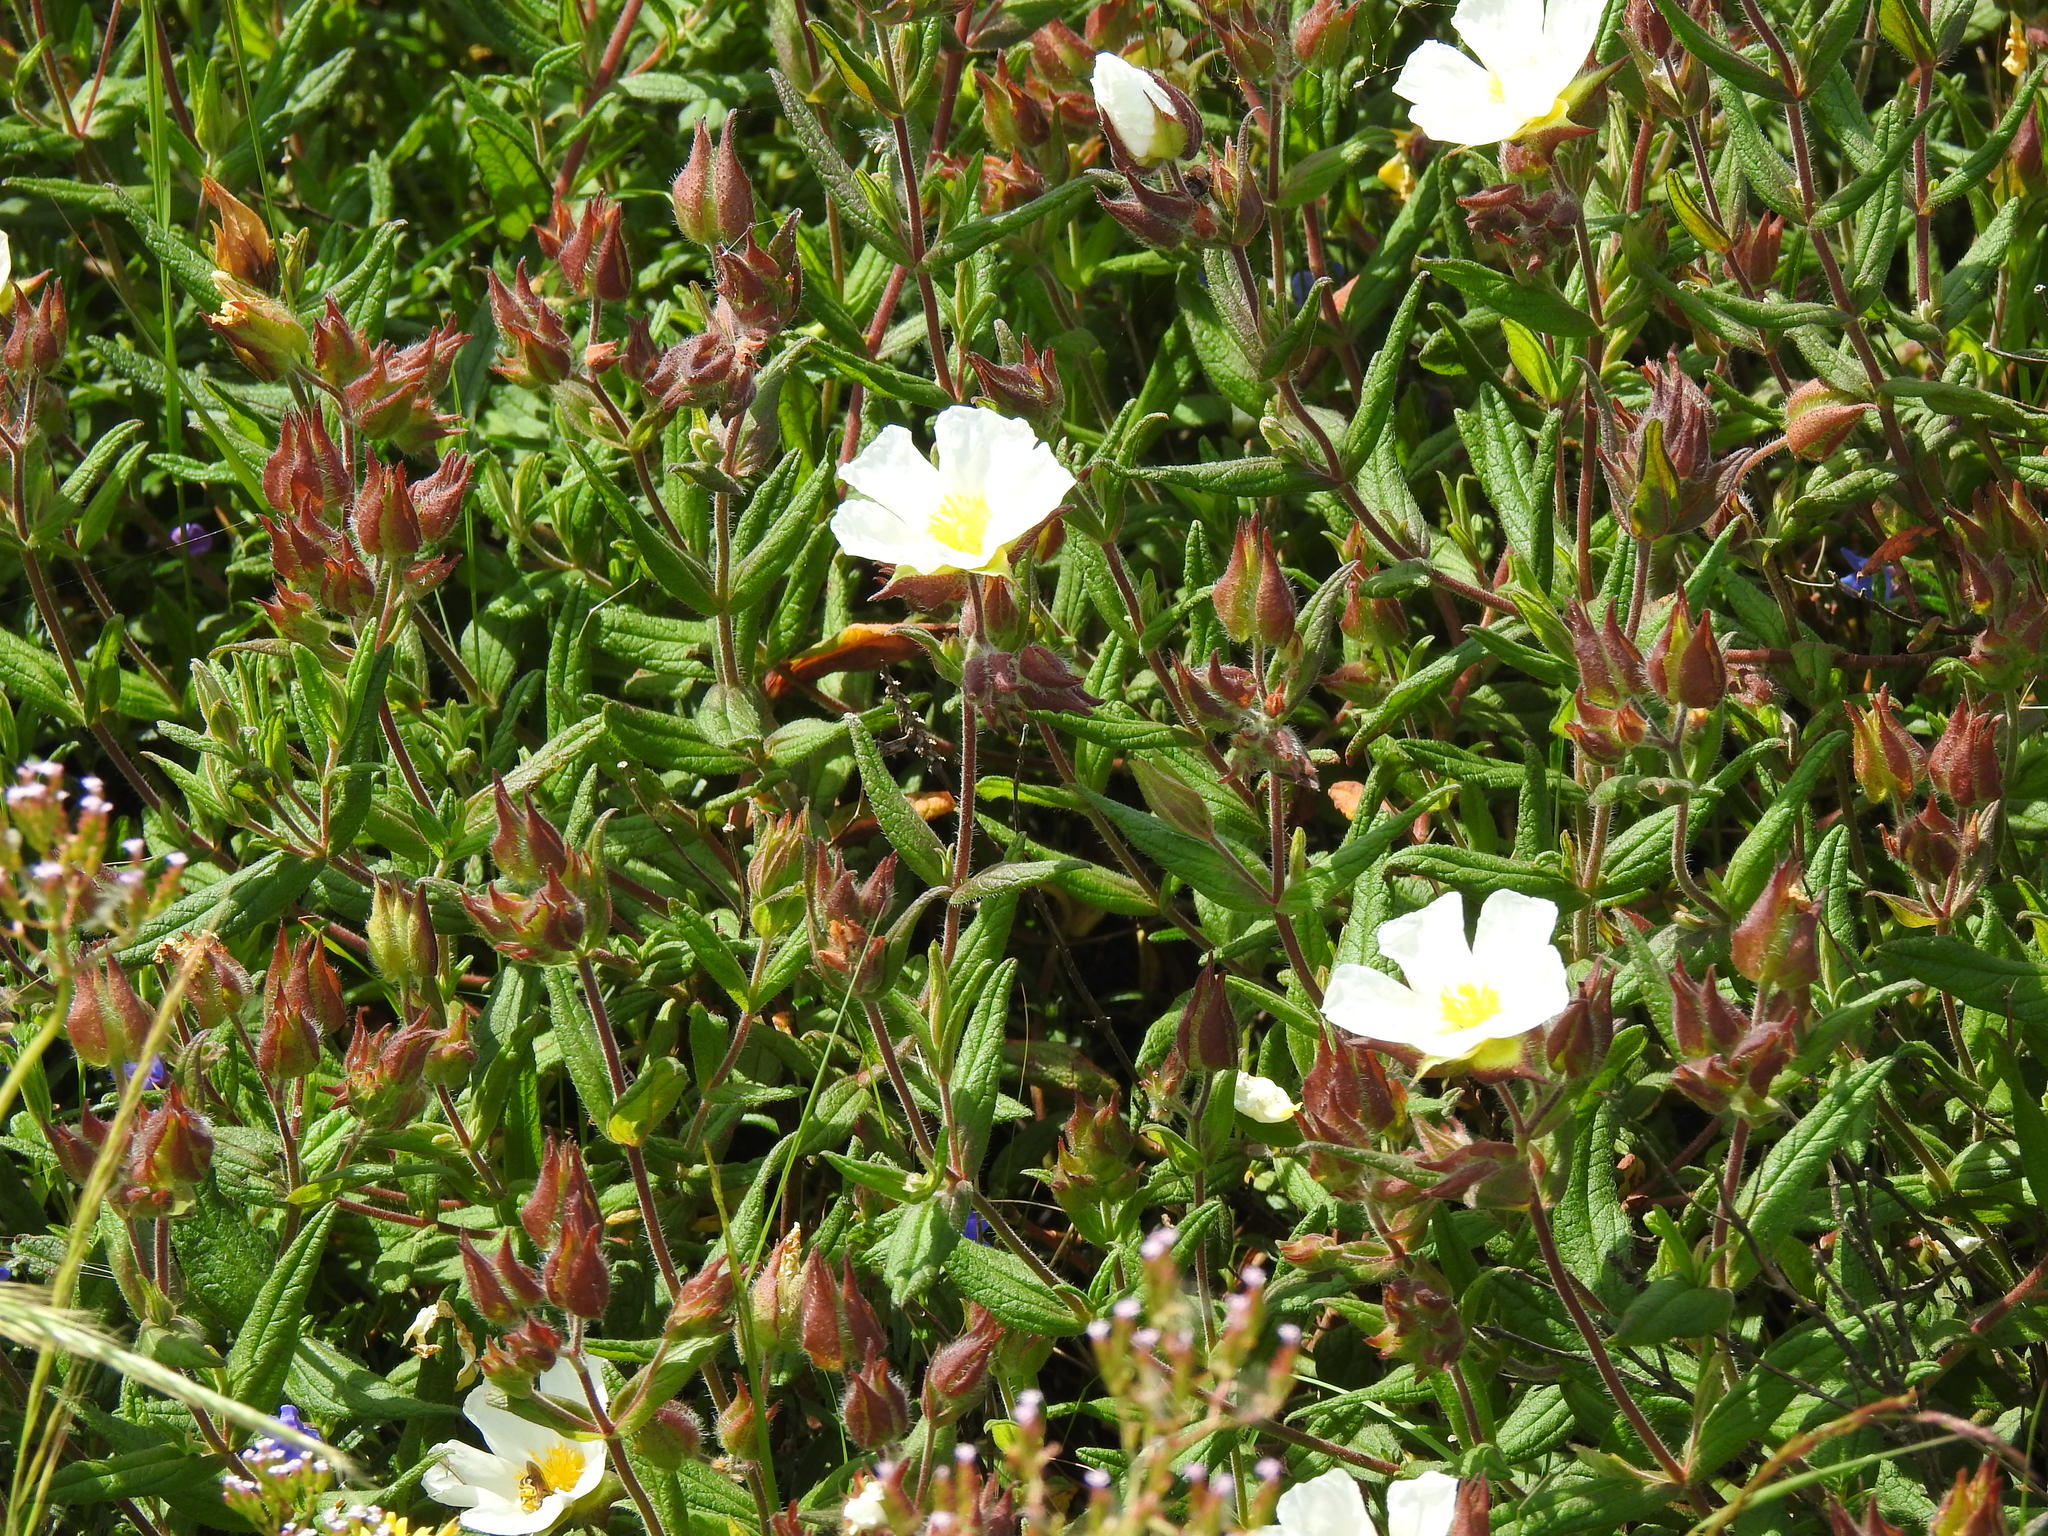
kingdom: Plantae
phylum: Tracheophyta
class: Magnoliopsida
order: Malvales
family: Cistaceae
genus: Cistus
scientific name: Cistus inflatus
